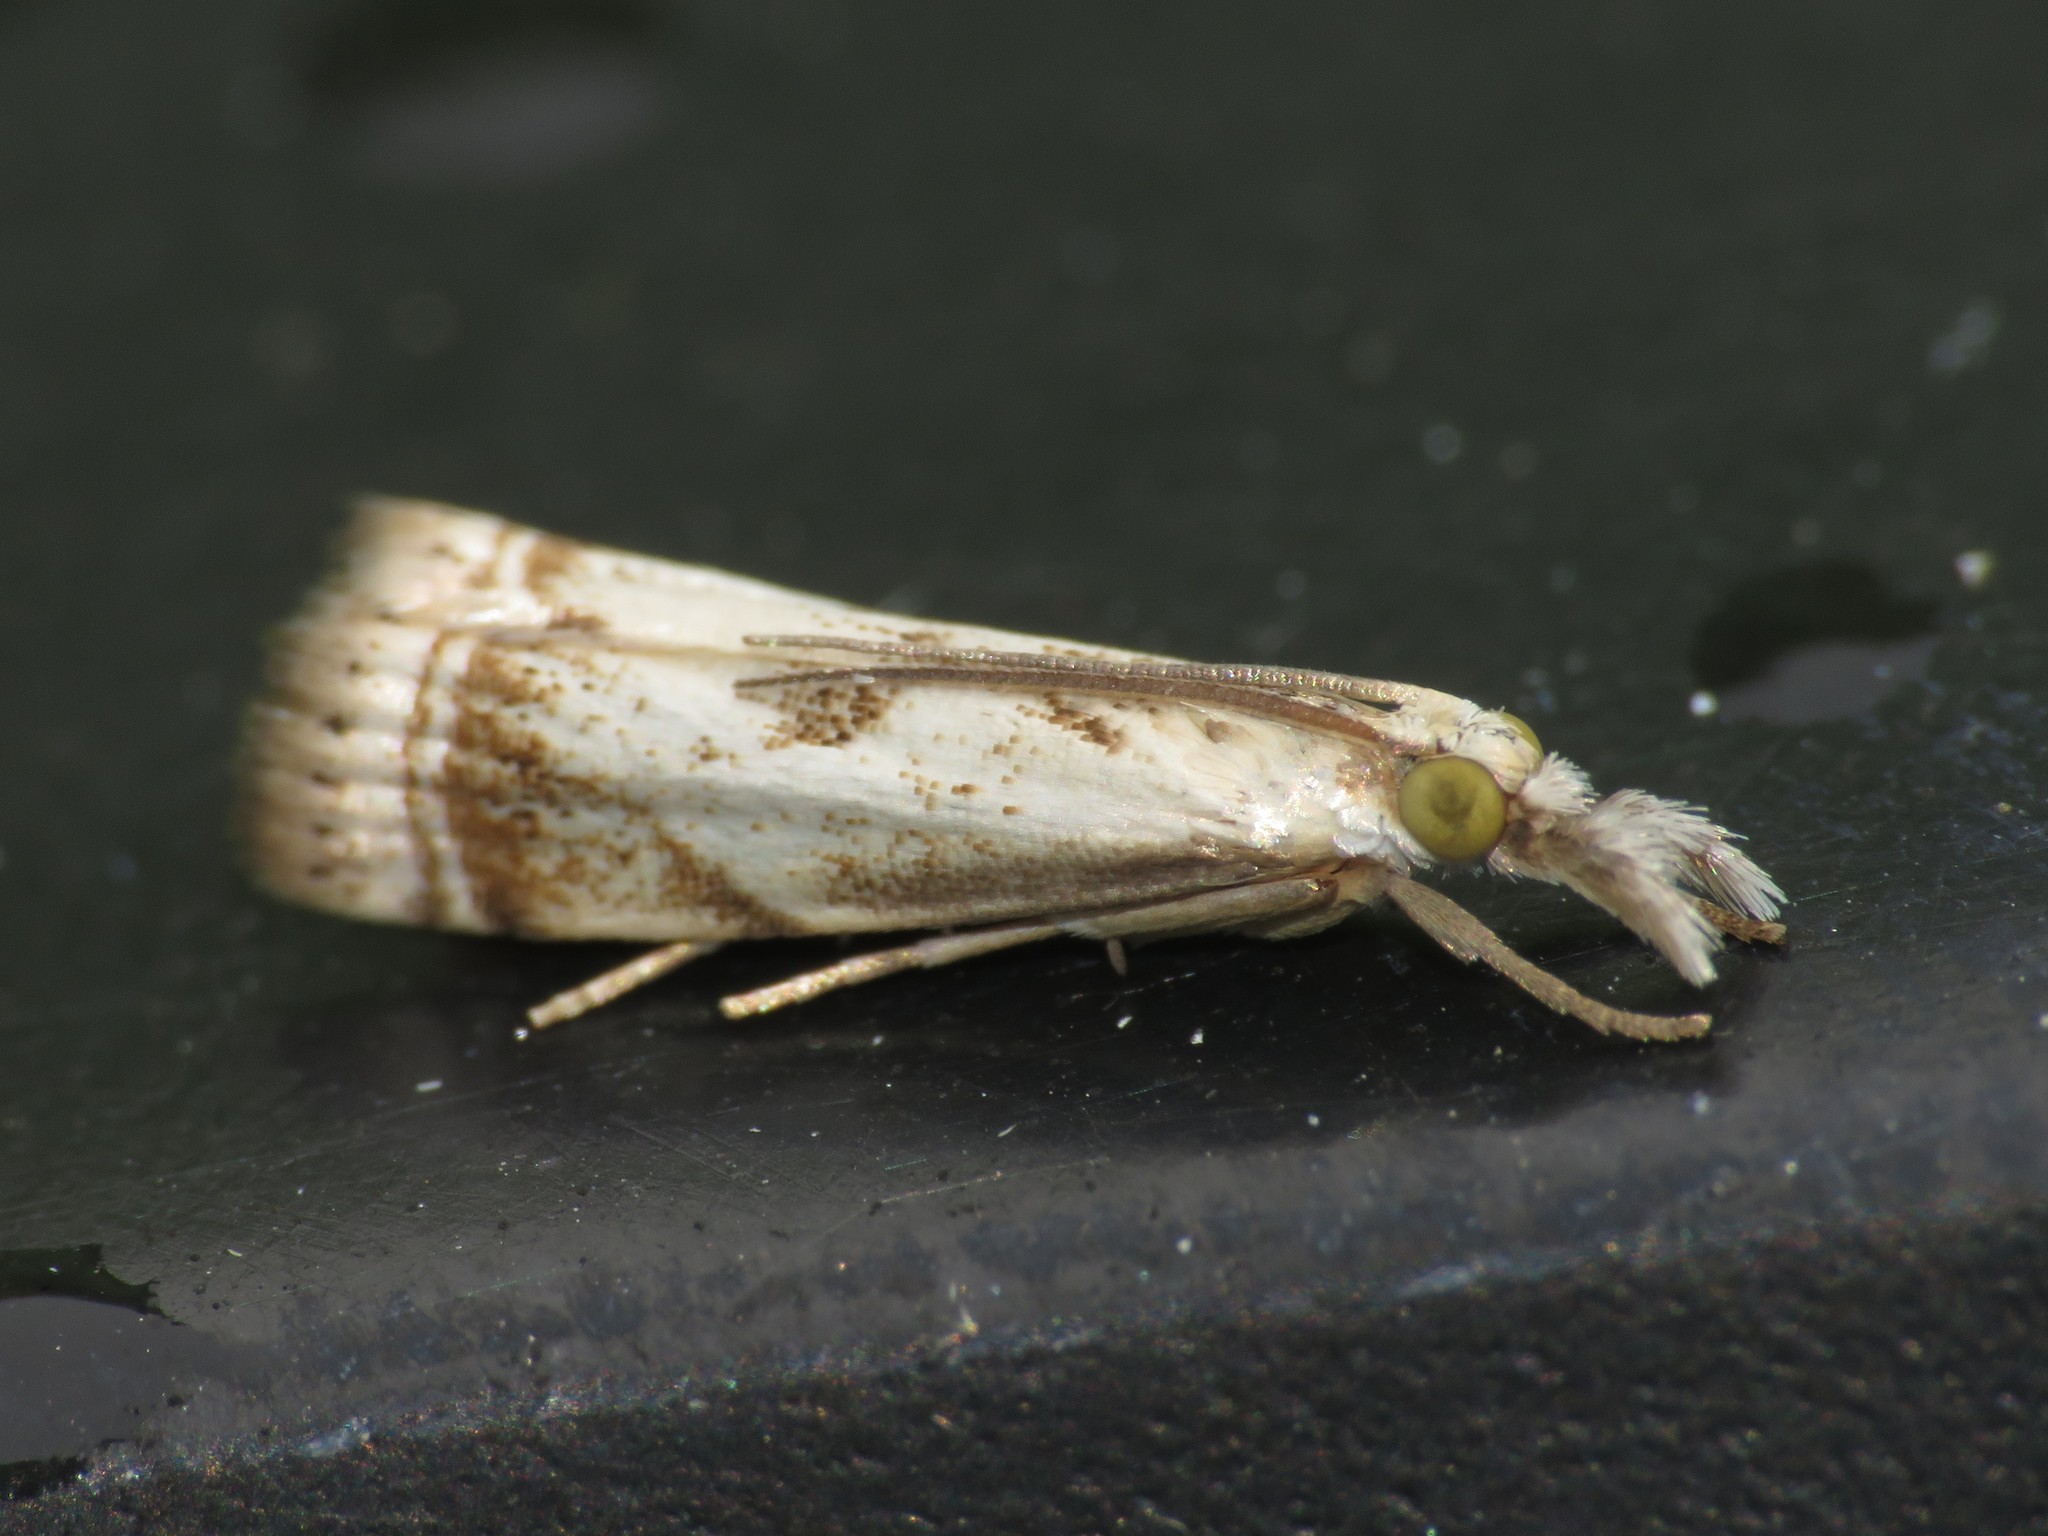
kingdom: Animalia
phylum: Arthropoda
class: Insecta
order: Lepidoptera
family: Crambidae
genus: Microcrambus
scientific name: Microcrambus elegans
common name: Elegant grass-veneer
